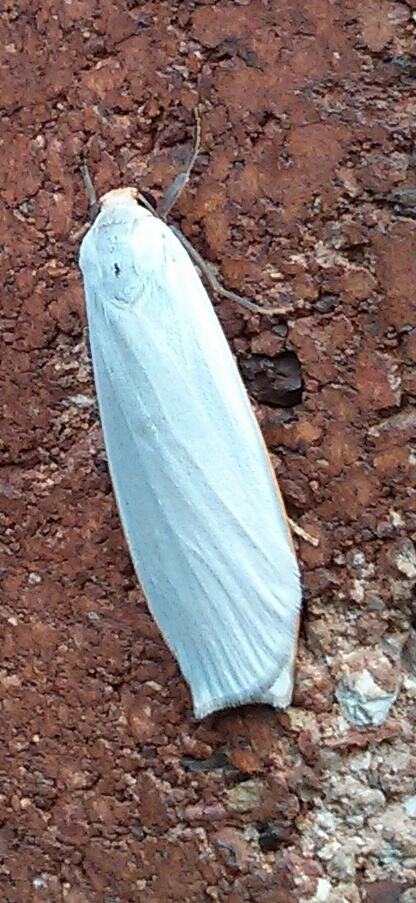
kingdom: Animalia
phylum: Arthropoda
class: Insecta
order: Lepidoptera
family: Erebidae
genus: Hesychopa
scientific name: Hesychopa chionora
